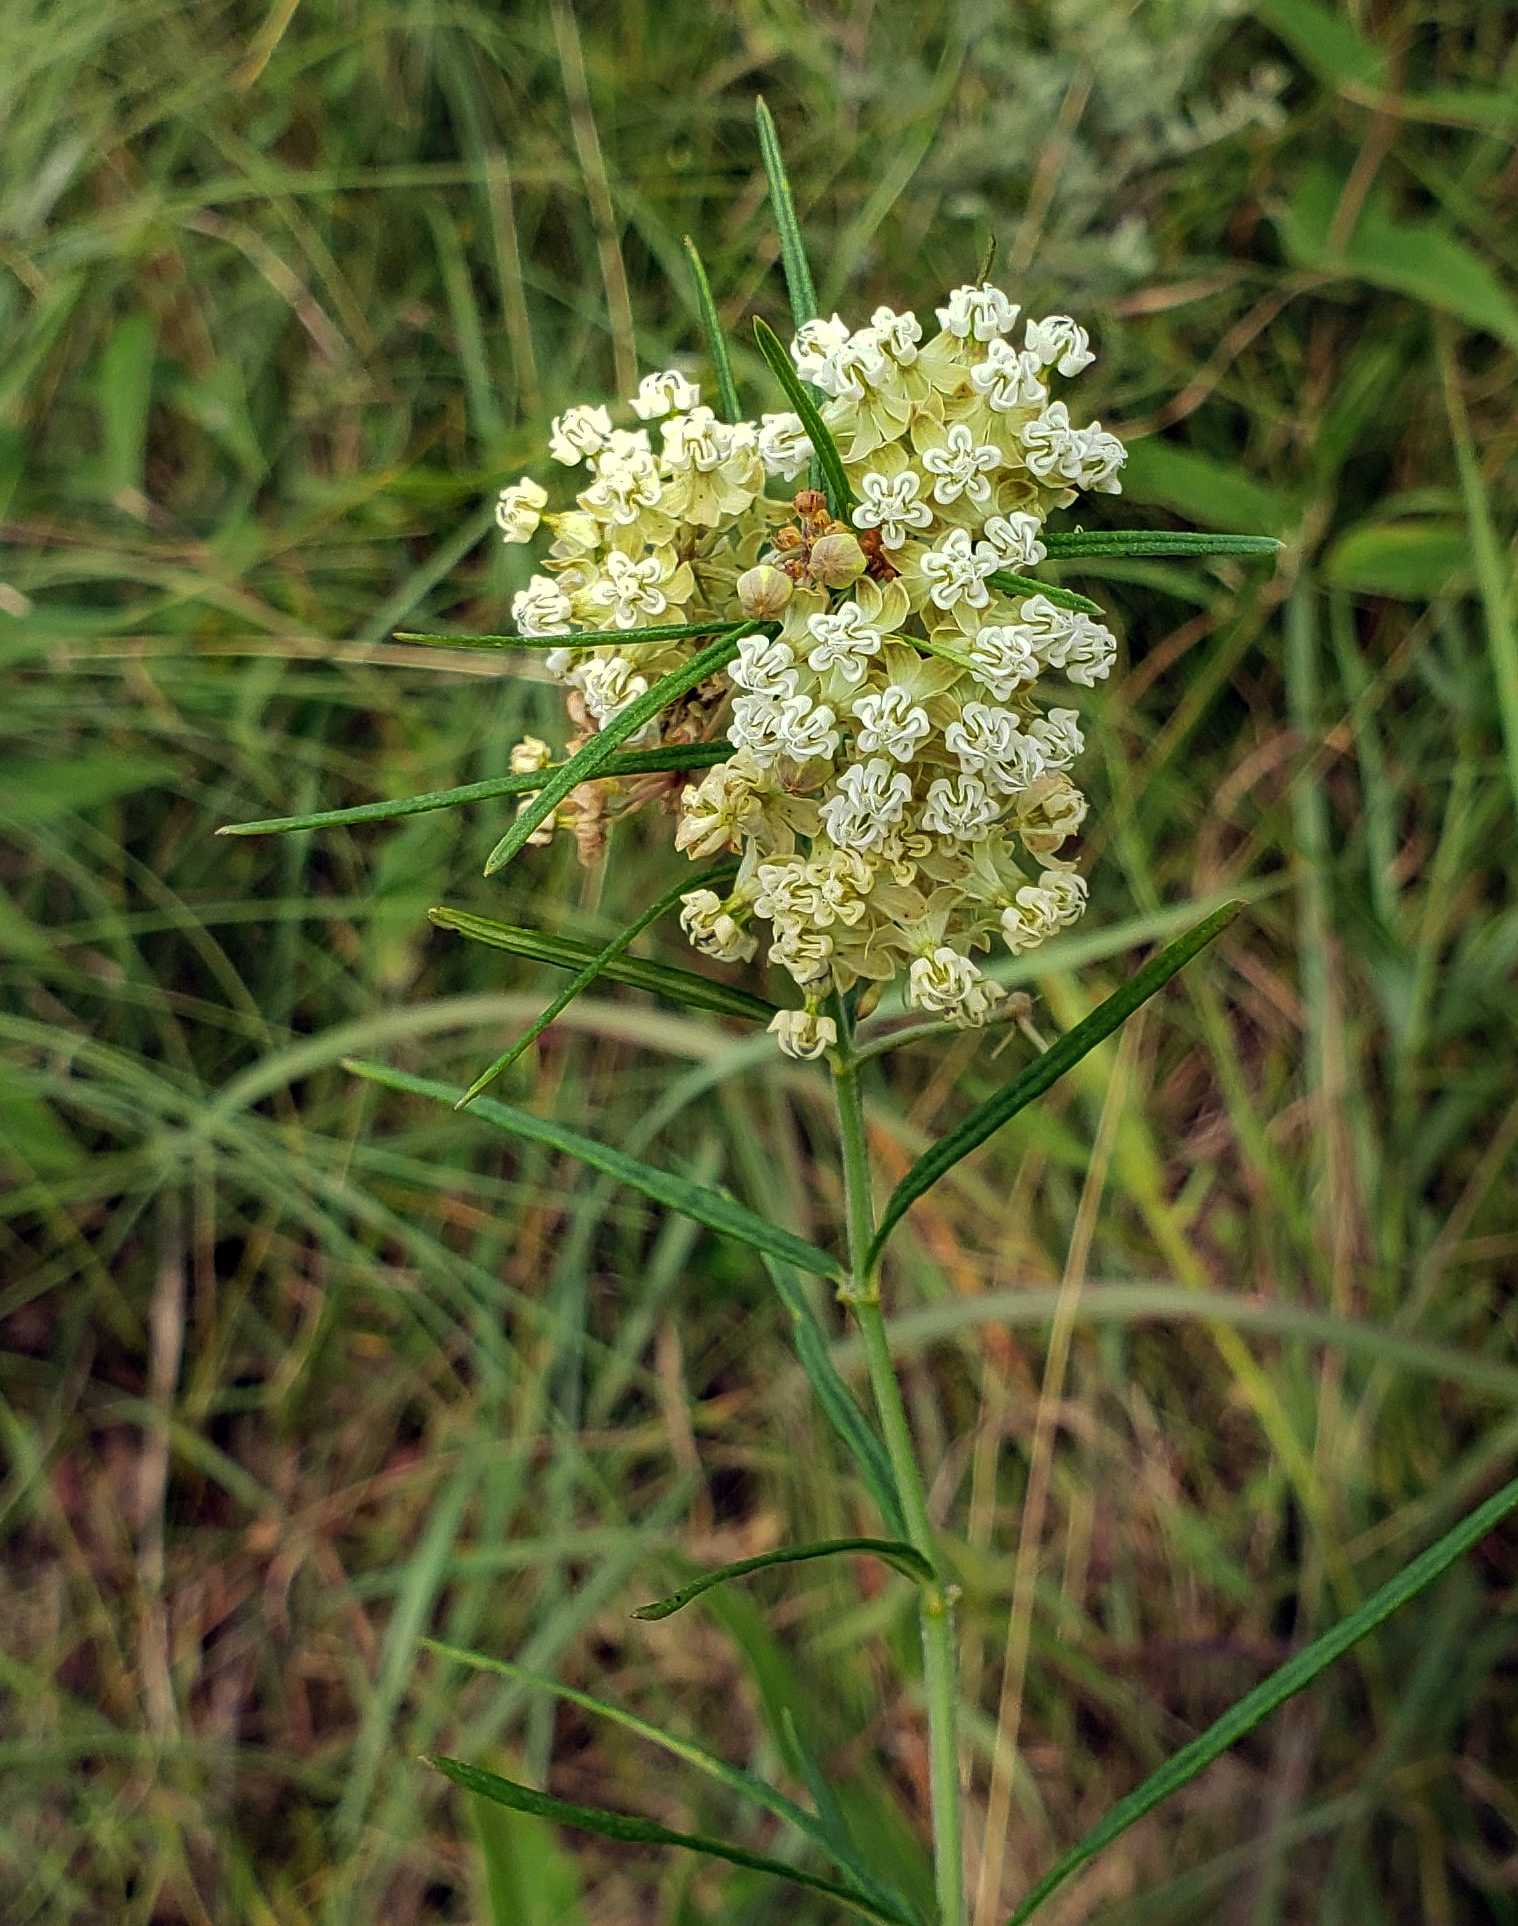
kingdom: Plantae
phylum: Tracheophyta
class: Magnoliopsida
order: Gentianales
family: Apocynaceae
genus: Asclepias
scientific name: Asclepias verticillata
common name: Eastern whorled milkweed
